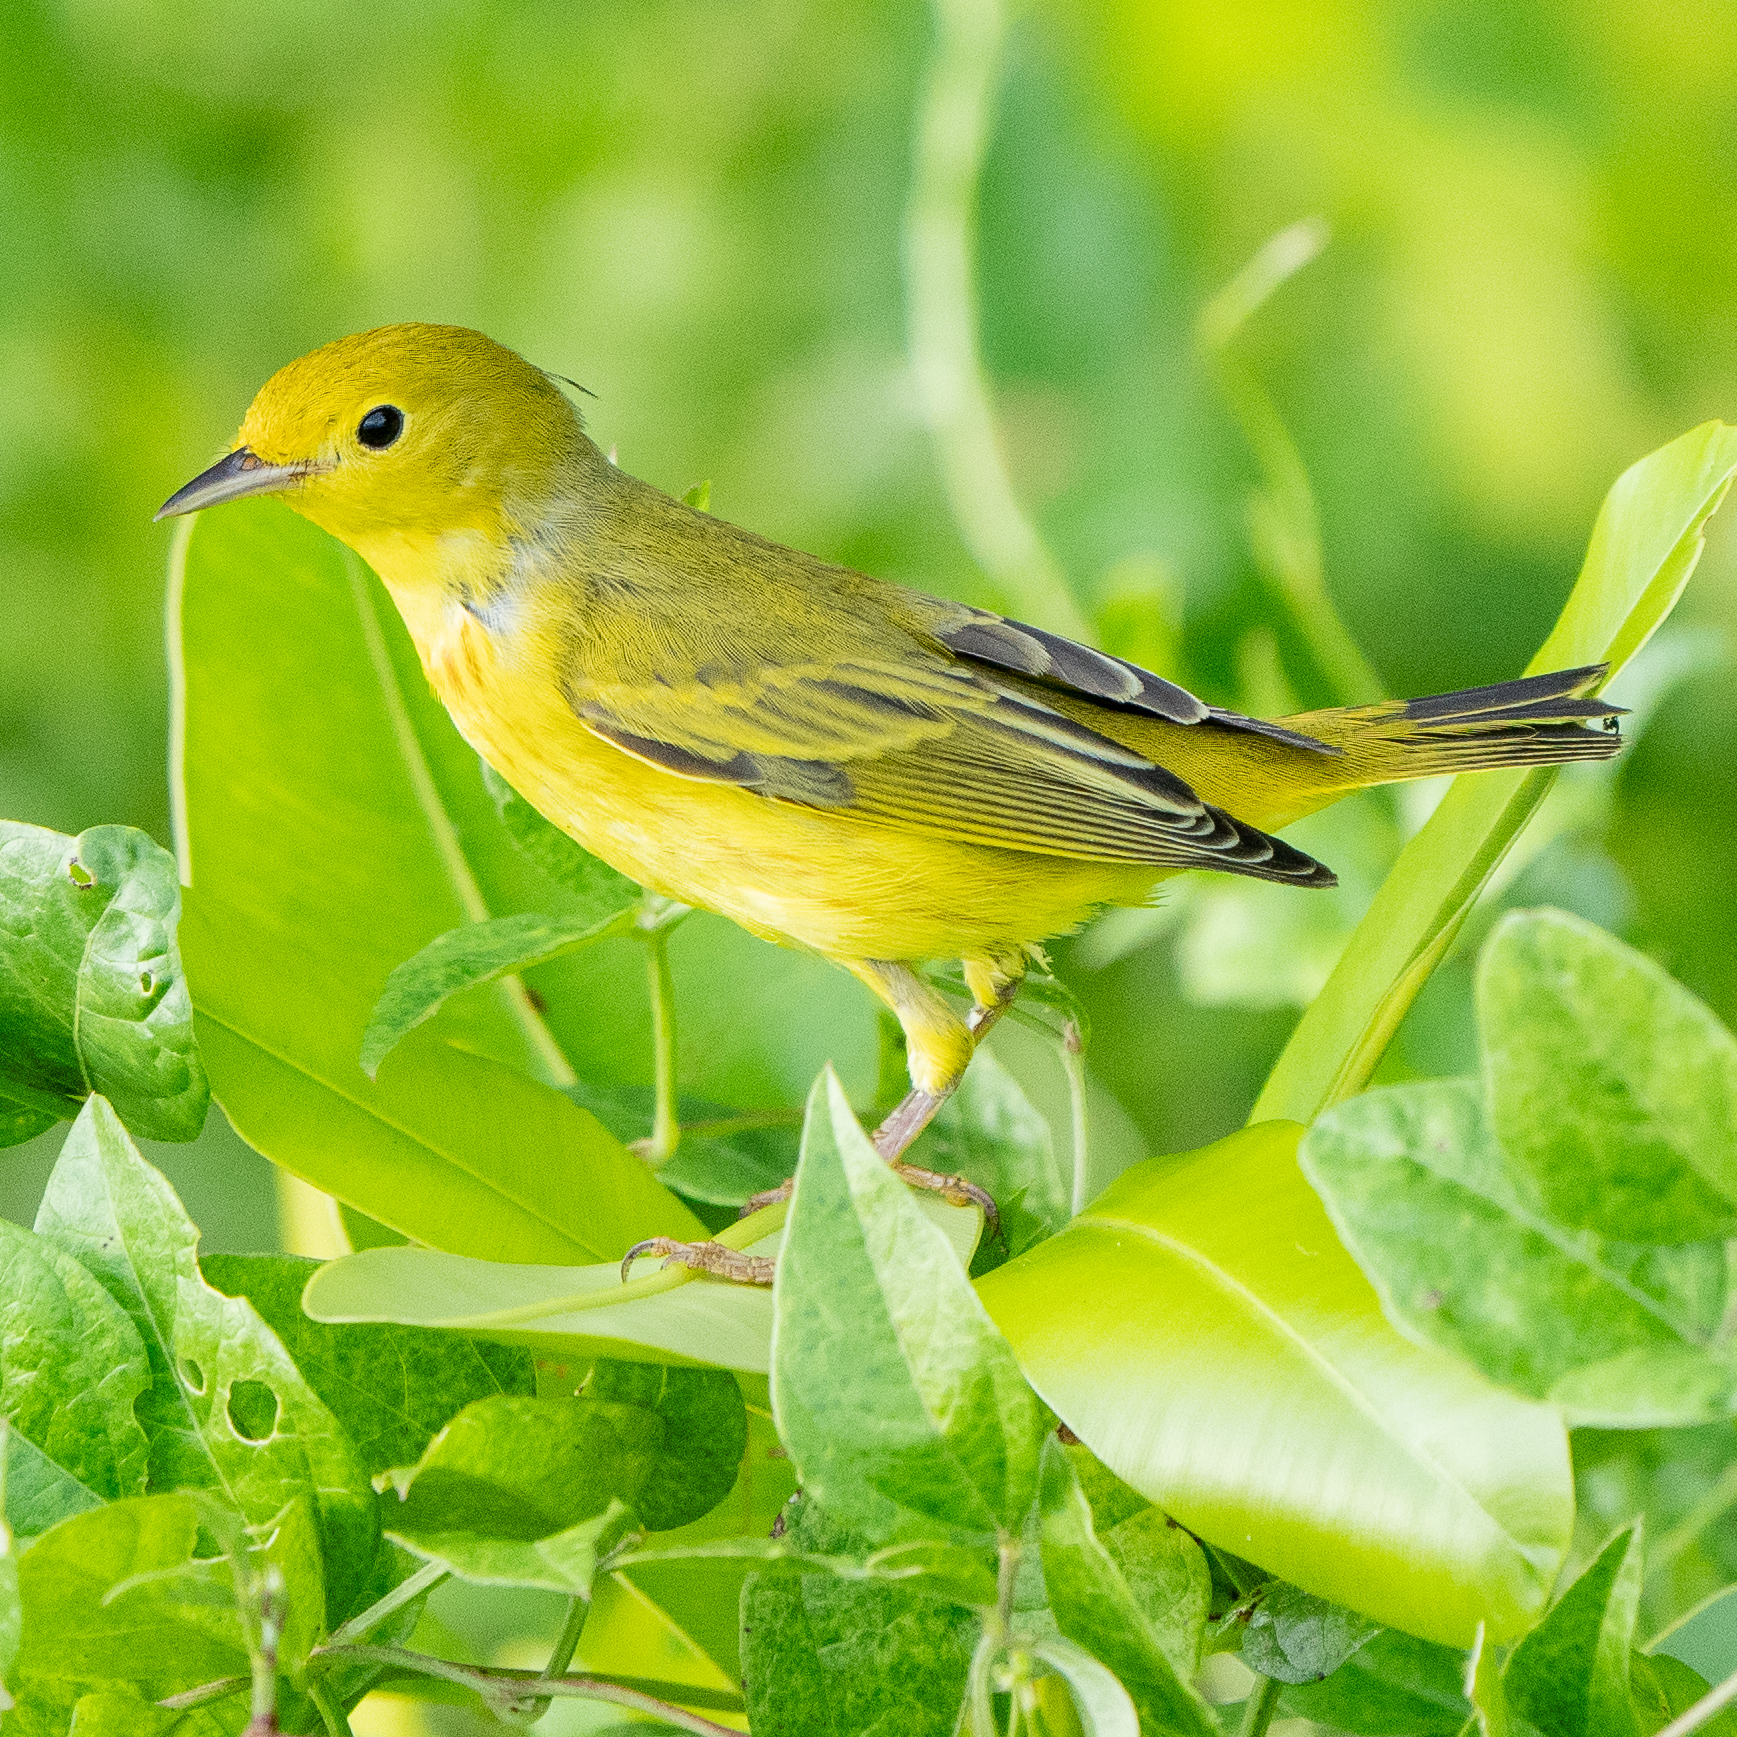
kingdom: Animalia
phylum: Chordata
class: Aves
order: Passeriformes
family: Parulidae
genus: Setophaga
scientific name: Setophaga petechia
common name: Yellow warbler
